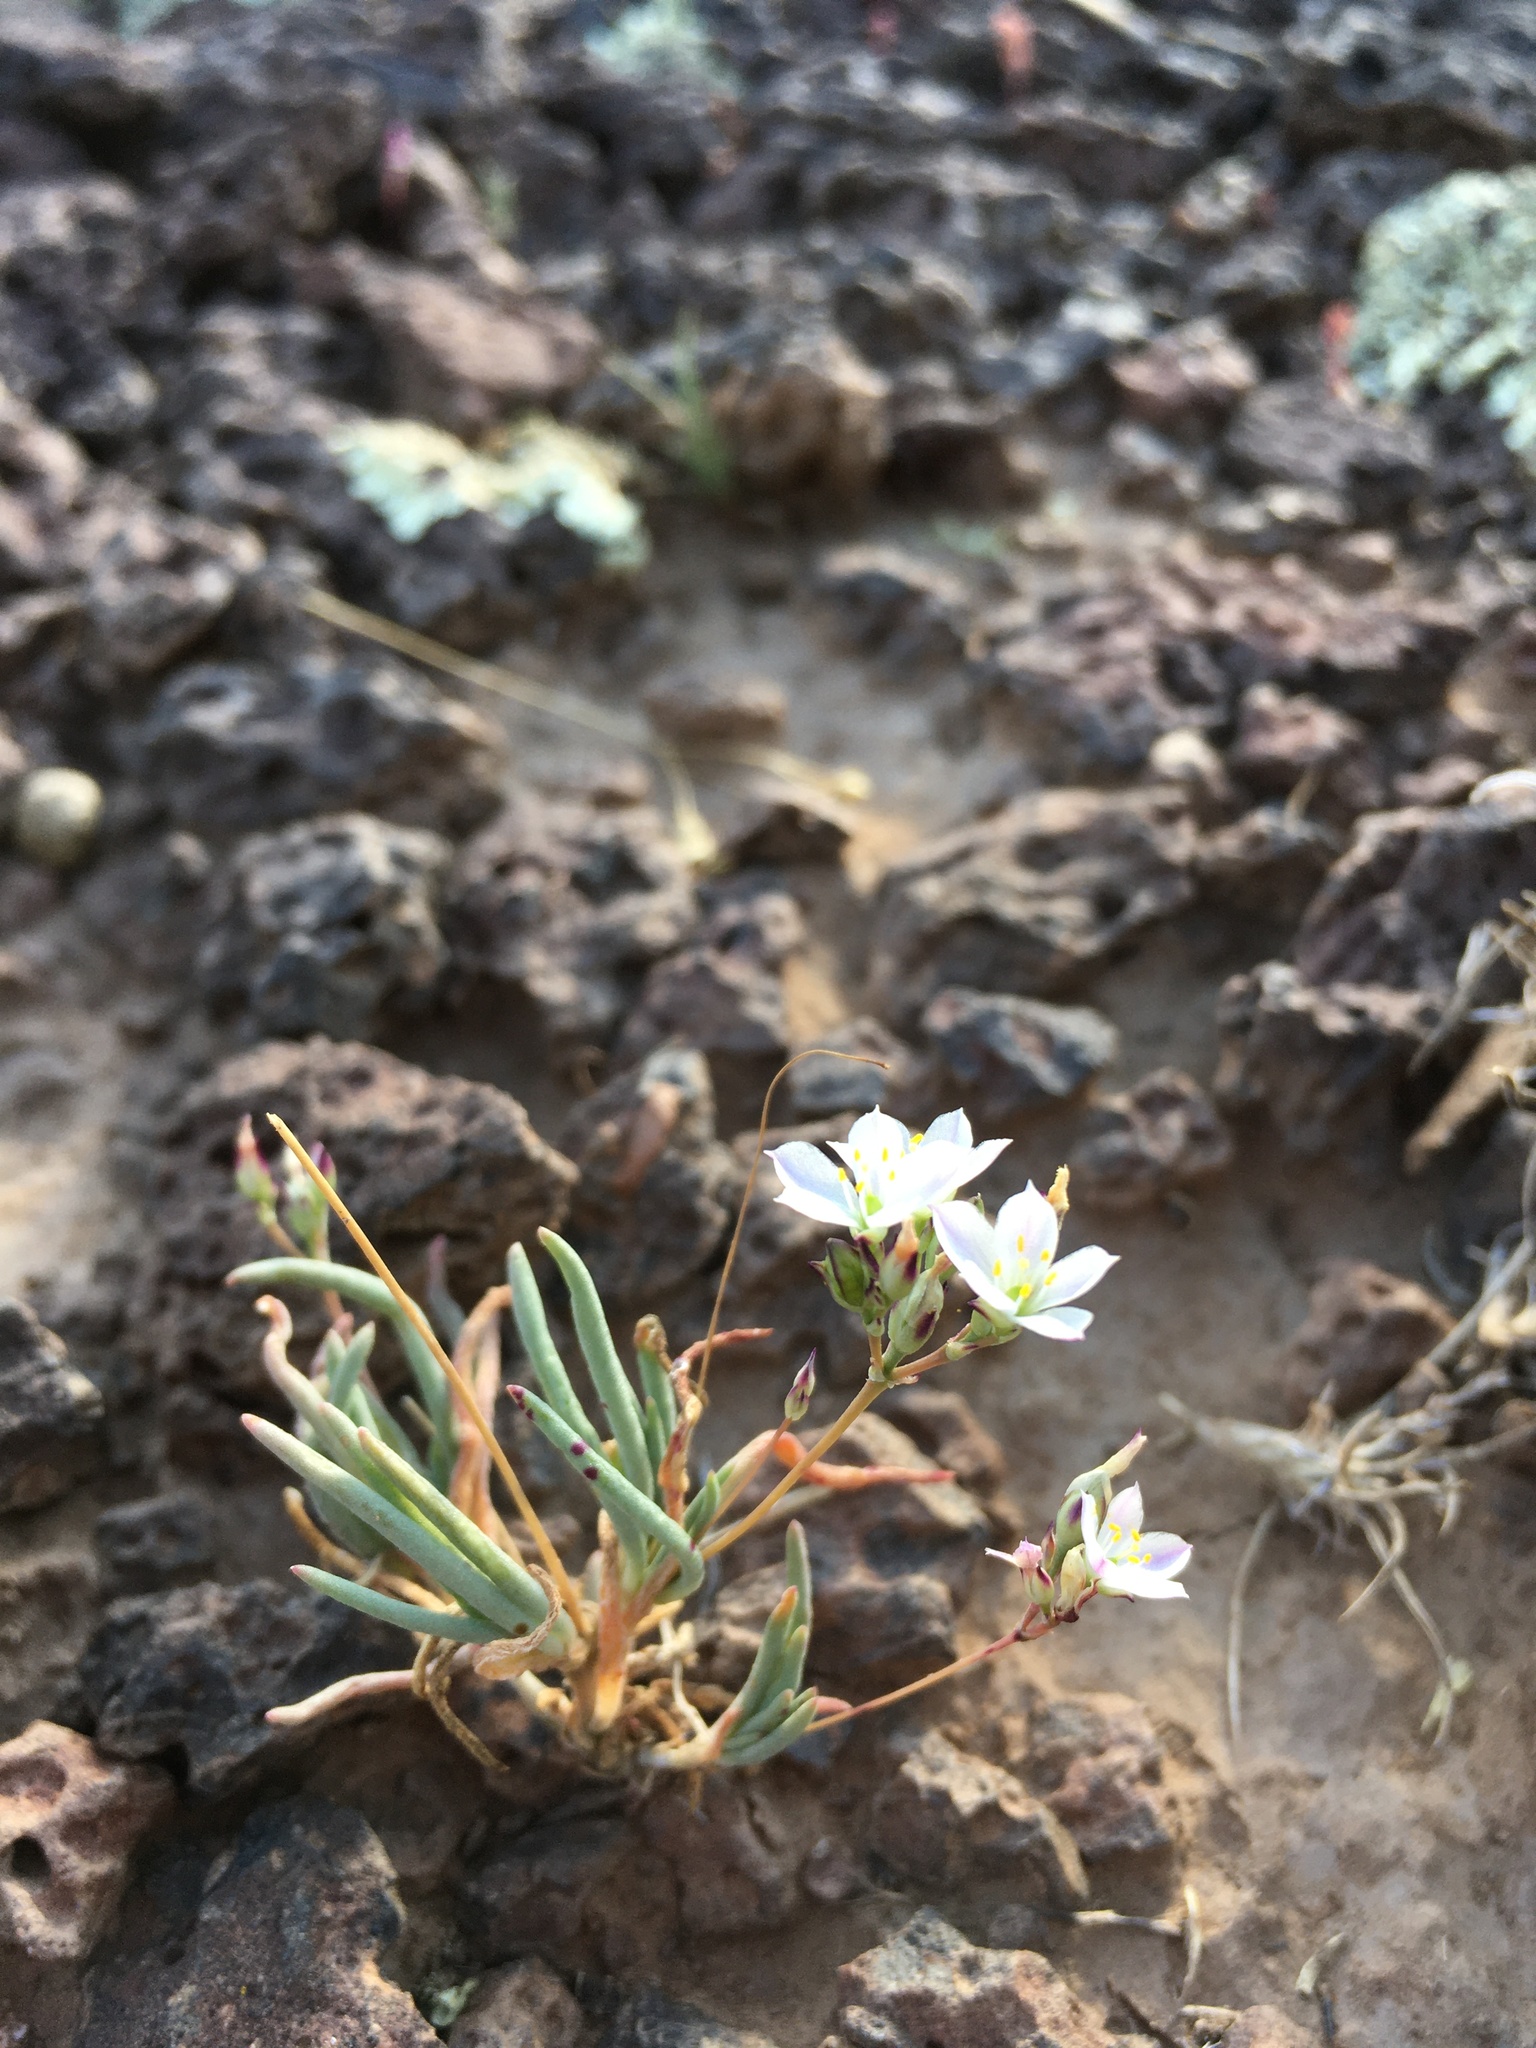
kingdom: Plantae
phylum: Tracheophyta
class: Magnoliopsida
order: Caryophyllales
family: Montiaceae
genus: Phemeranthus
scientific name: Phemeranthus confertiflorus
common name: New mexico fameflower
